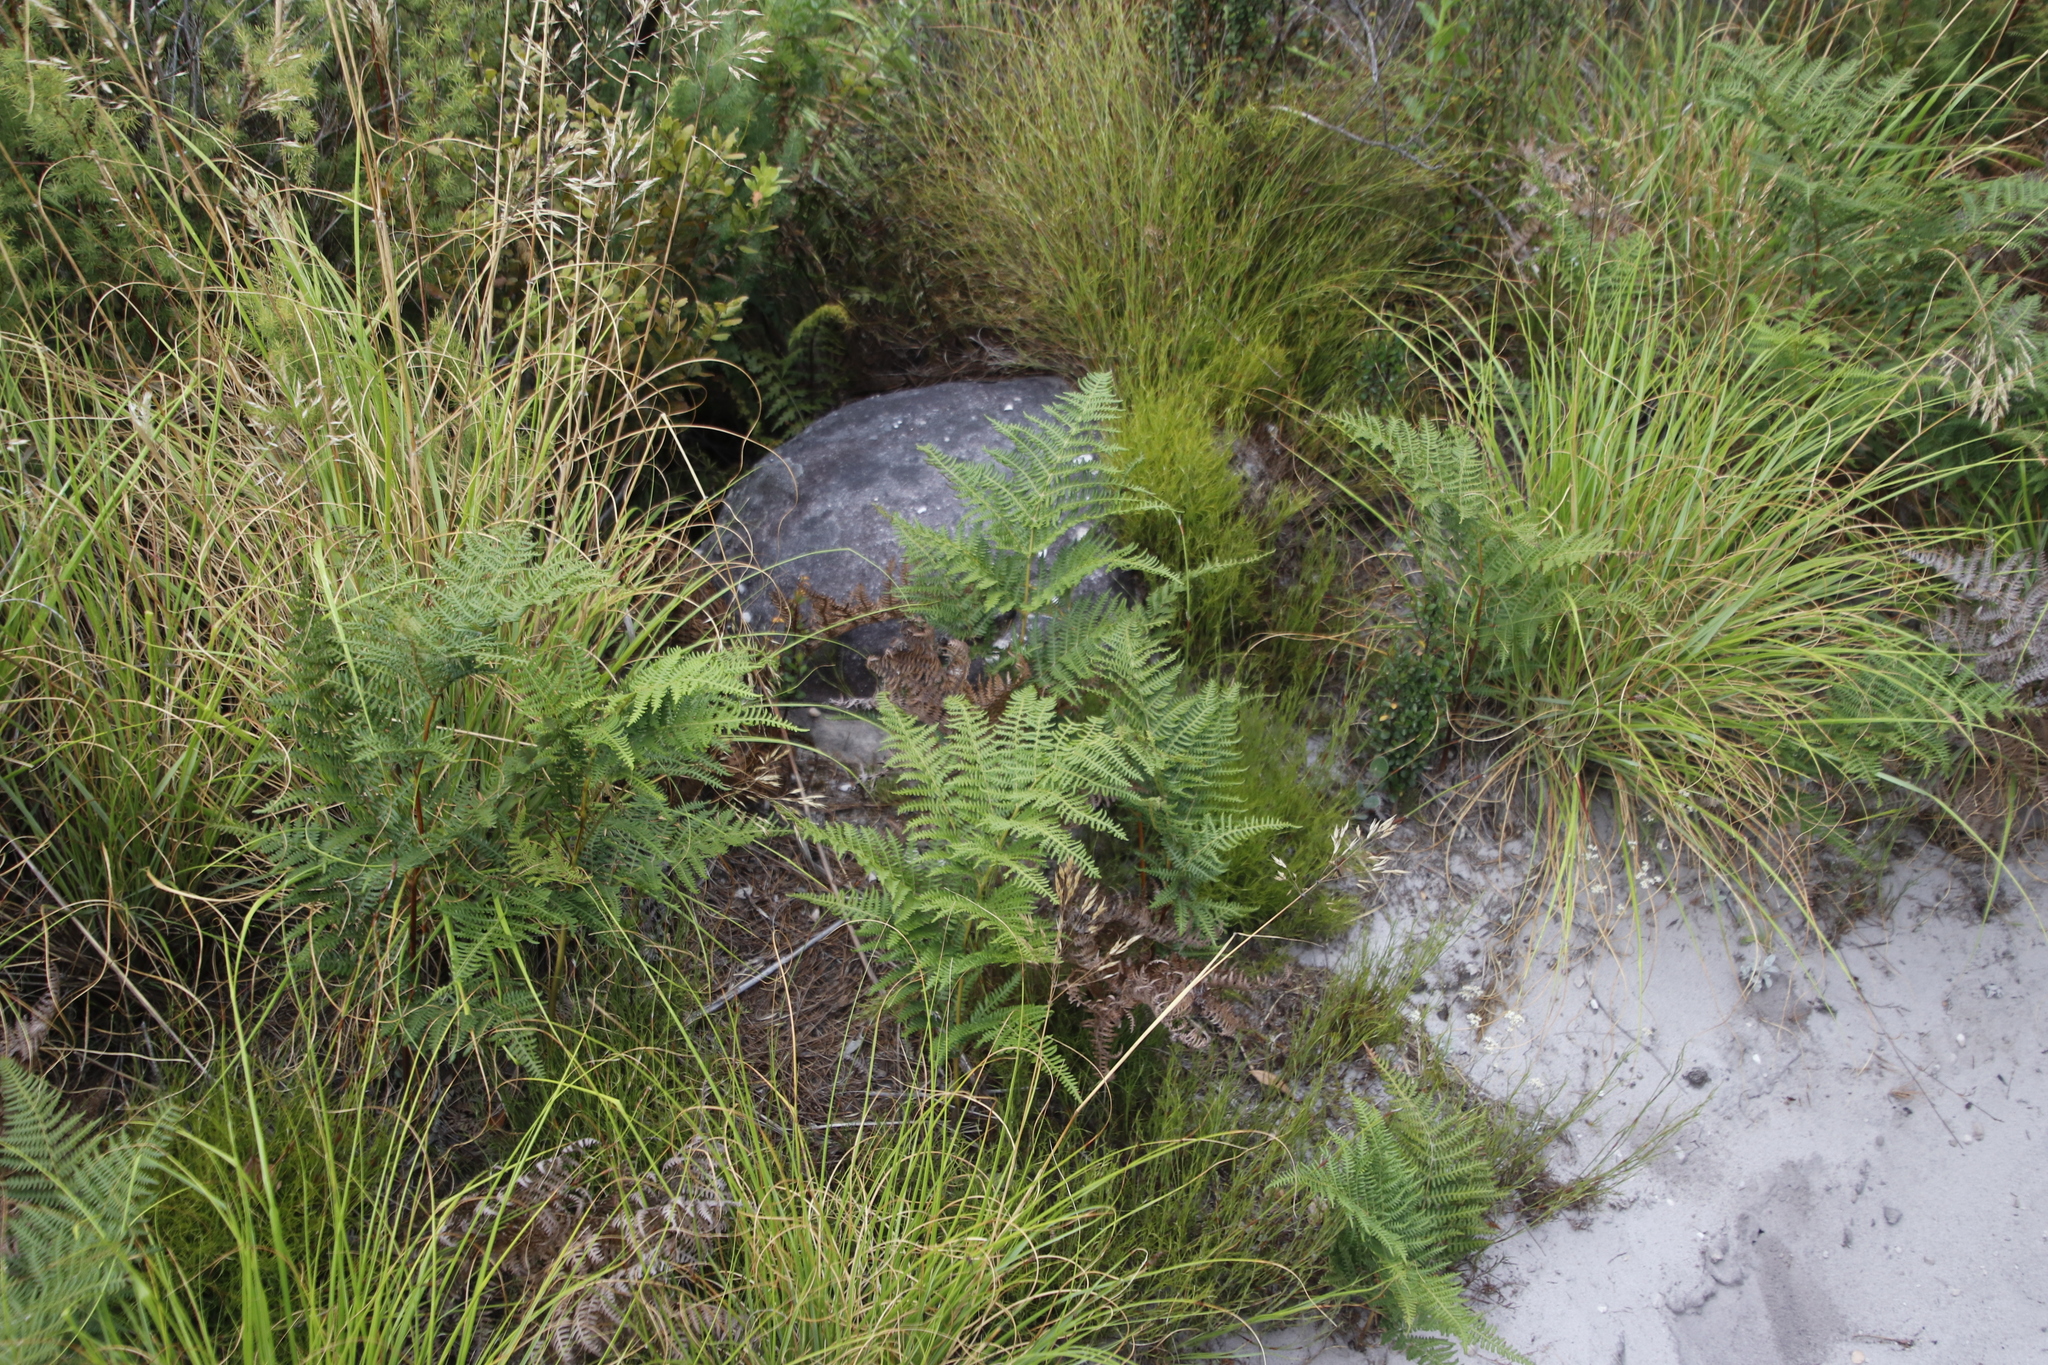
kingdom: Plantae
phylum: Tracheophyta
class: Polypodiopsida
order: Polypodiales
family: Dennstaedtiaceae
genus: Pteridium
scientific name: Pteridium aquilinum
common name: Bracken
